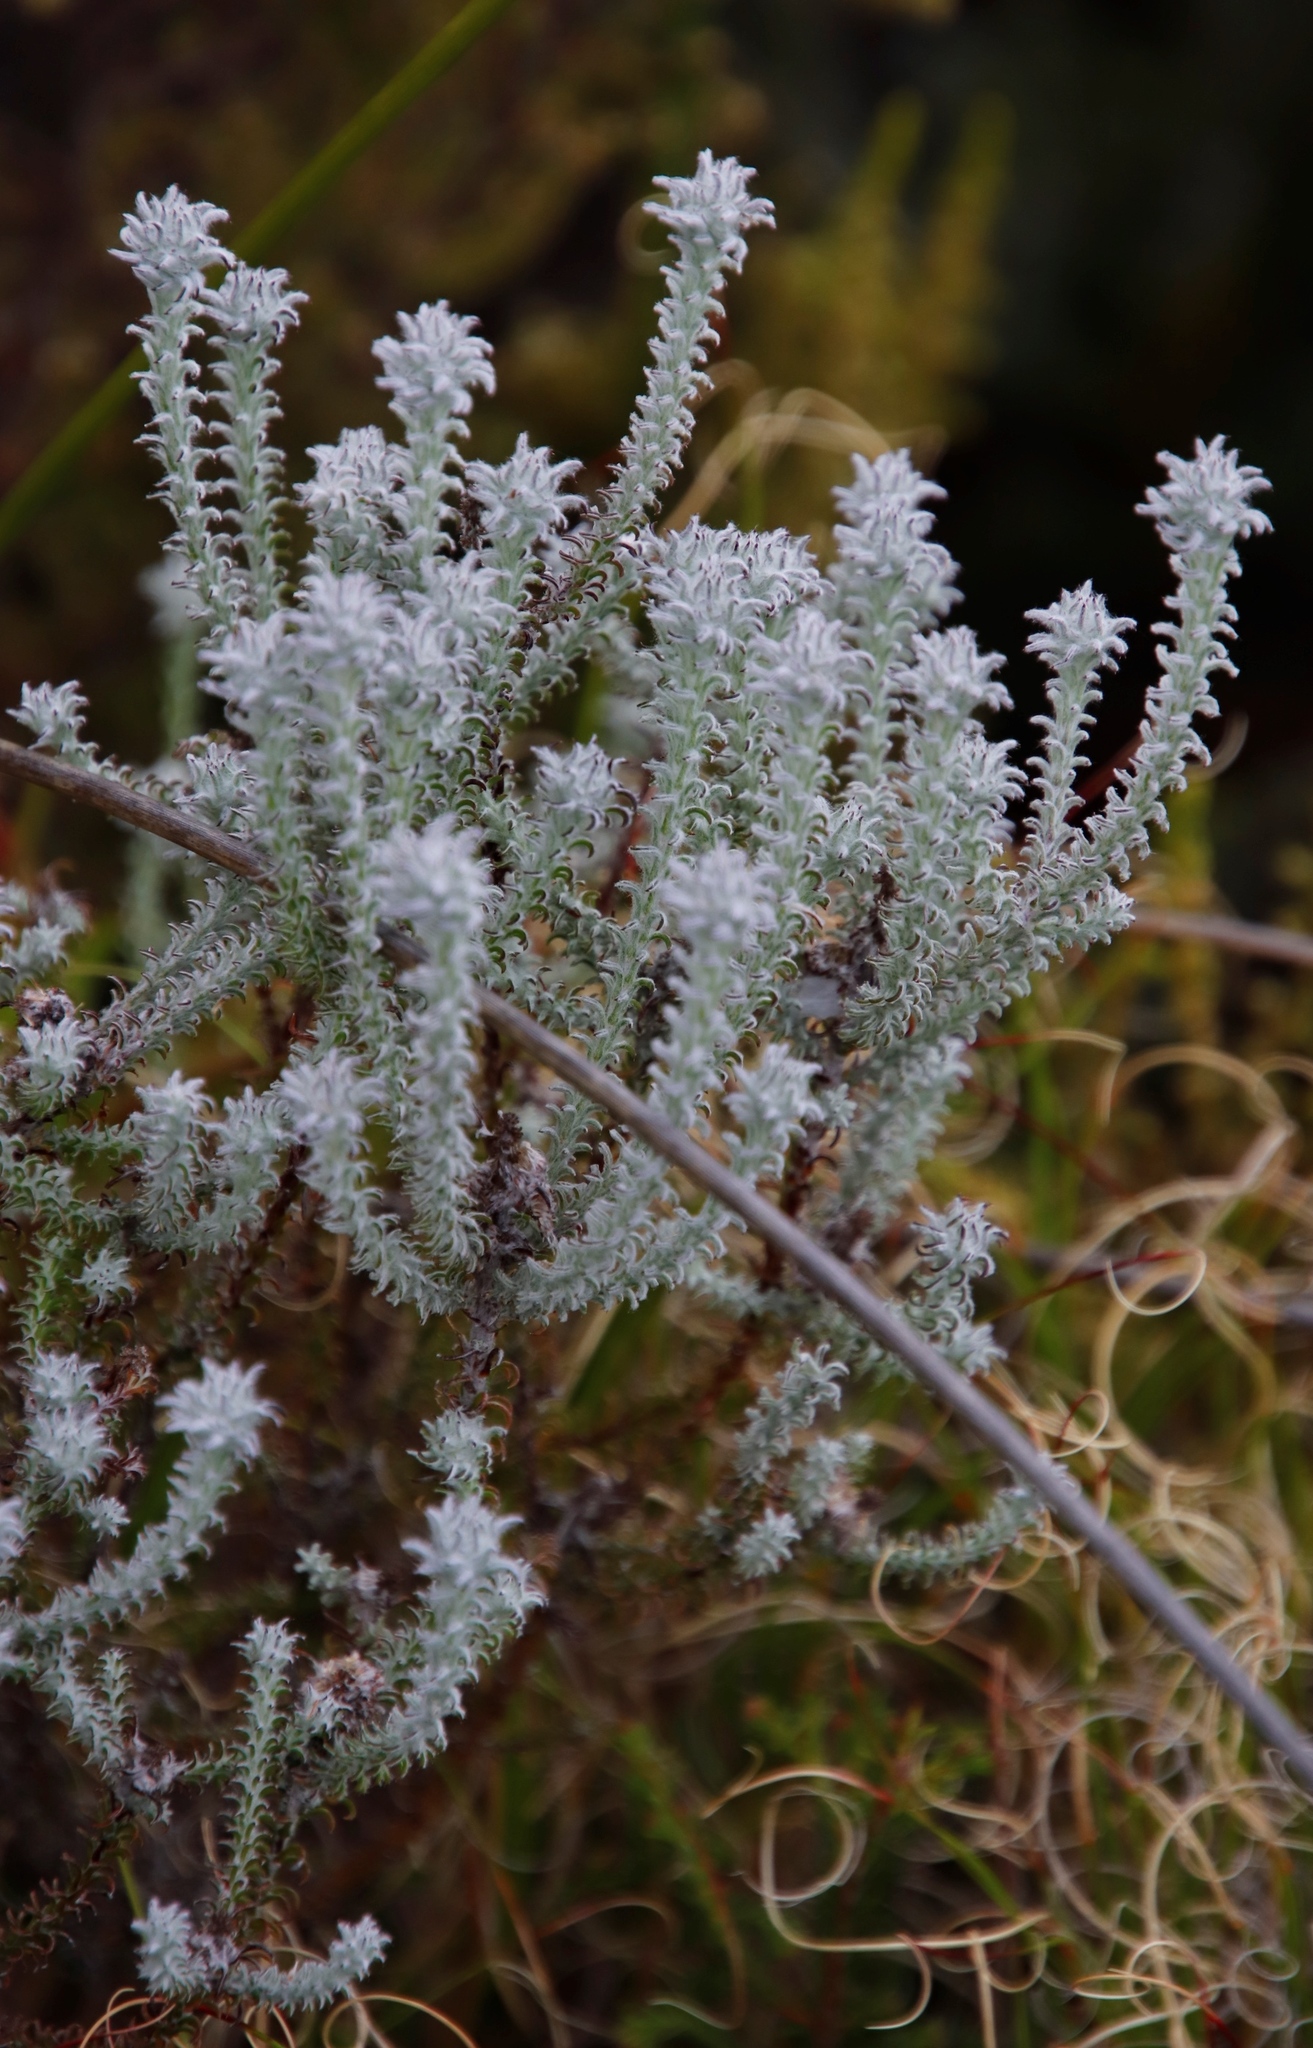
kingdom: Plantae
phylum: Tracheophyta
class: Magnoliopsida
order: Asterales
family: Asteraceae
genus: Seriphium
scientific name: Seriphium spirale
